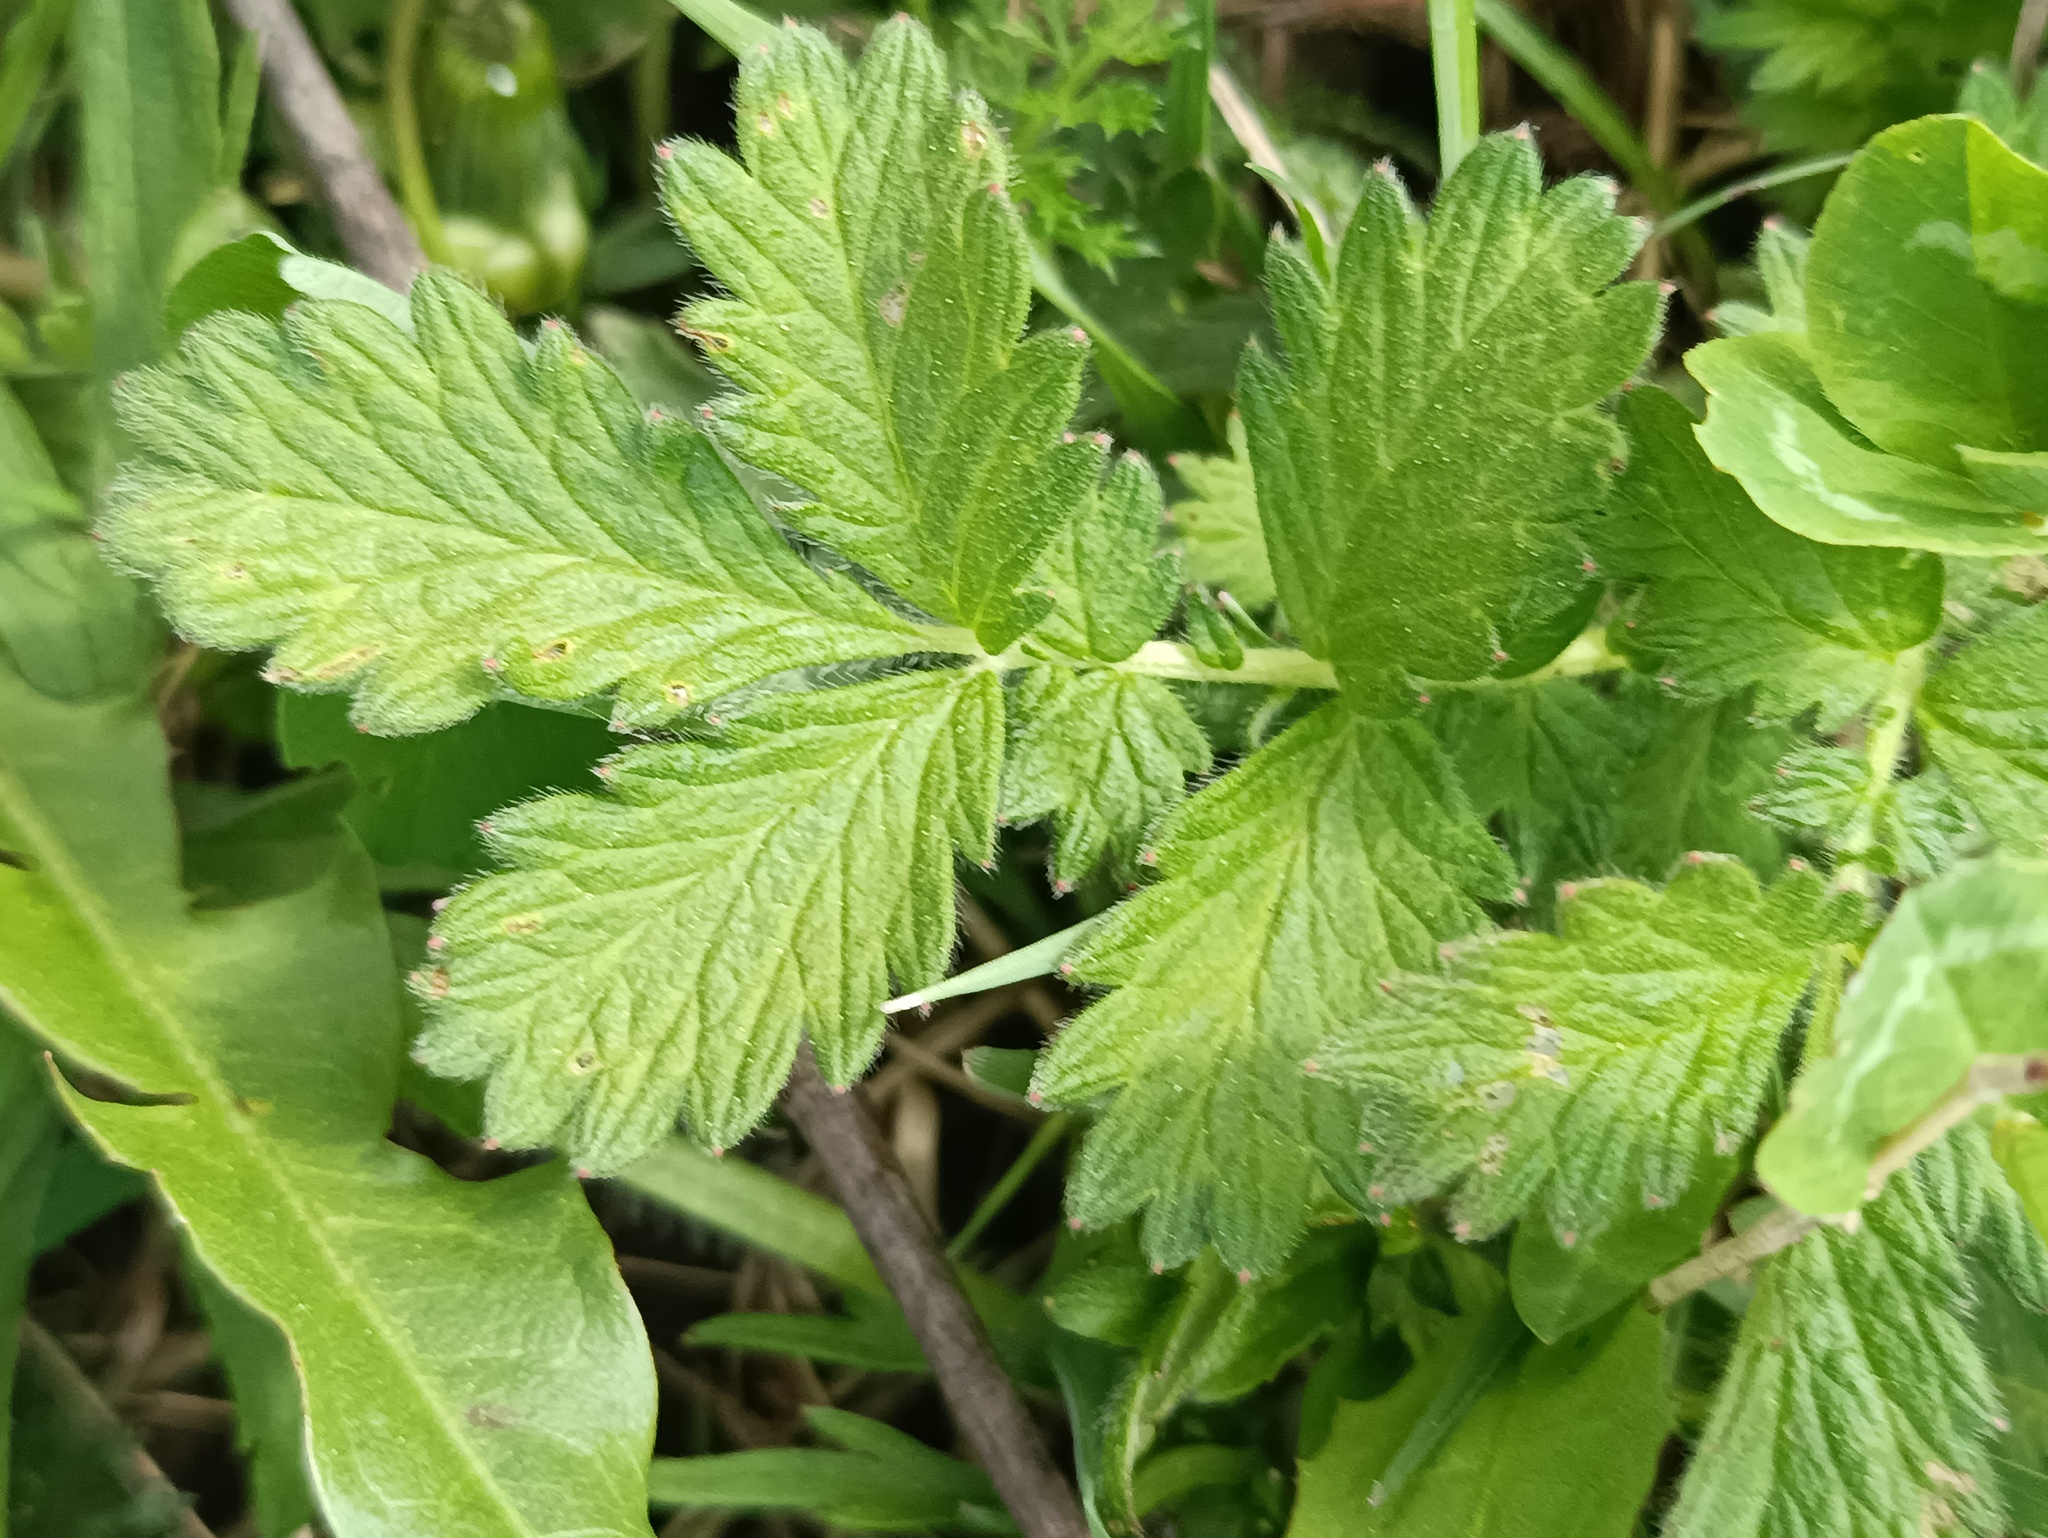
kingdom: Plantae
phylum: Tracheophyta
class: Magnoliopsida
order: Rosales
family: Rosaceae
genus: Agrimonia
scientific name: Agrimonia eupatoria
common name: Agrimony
